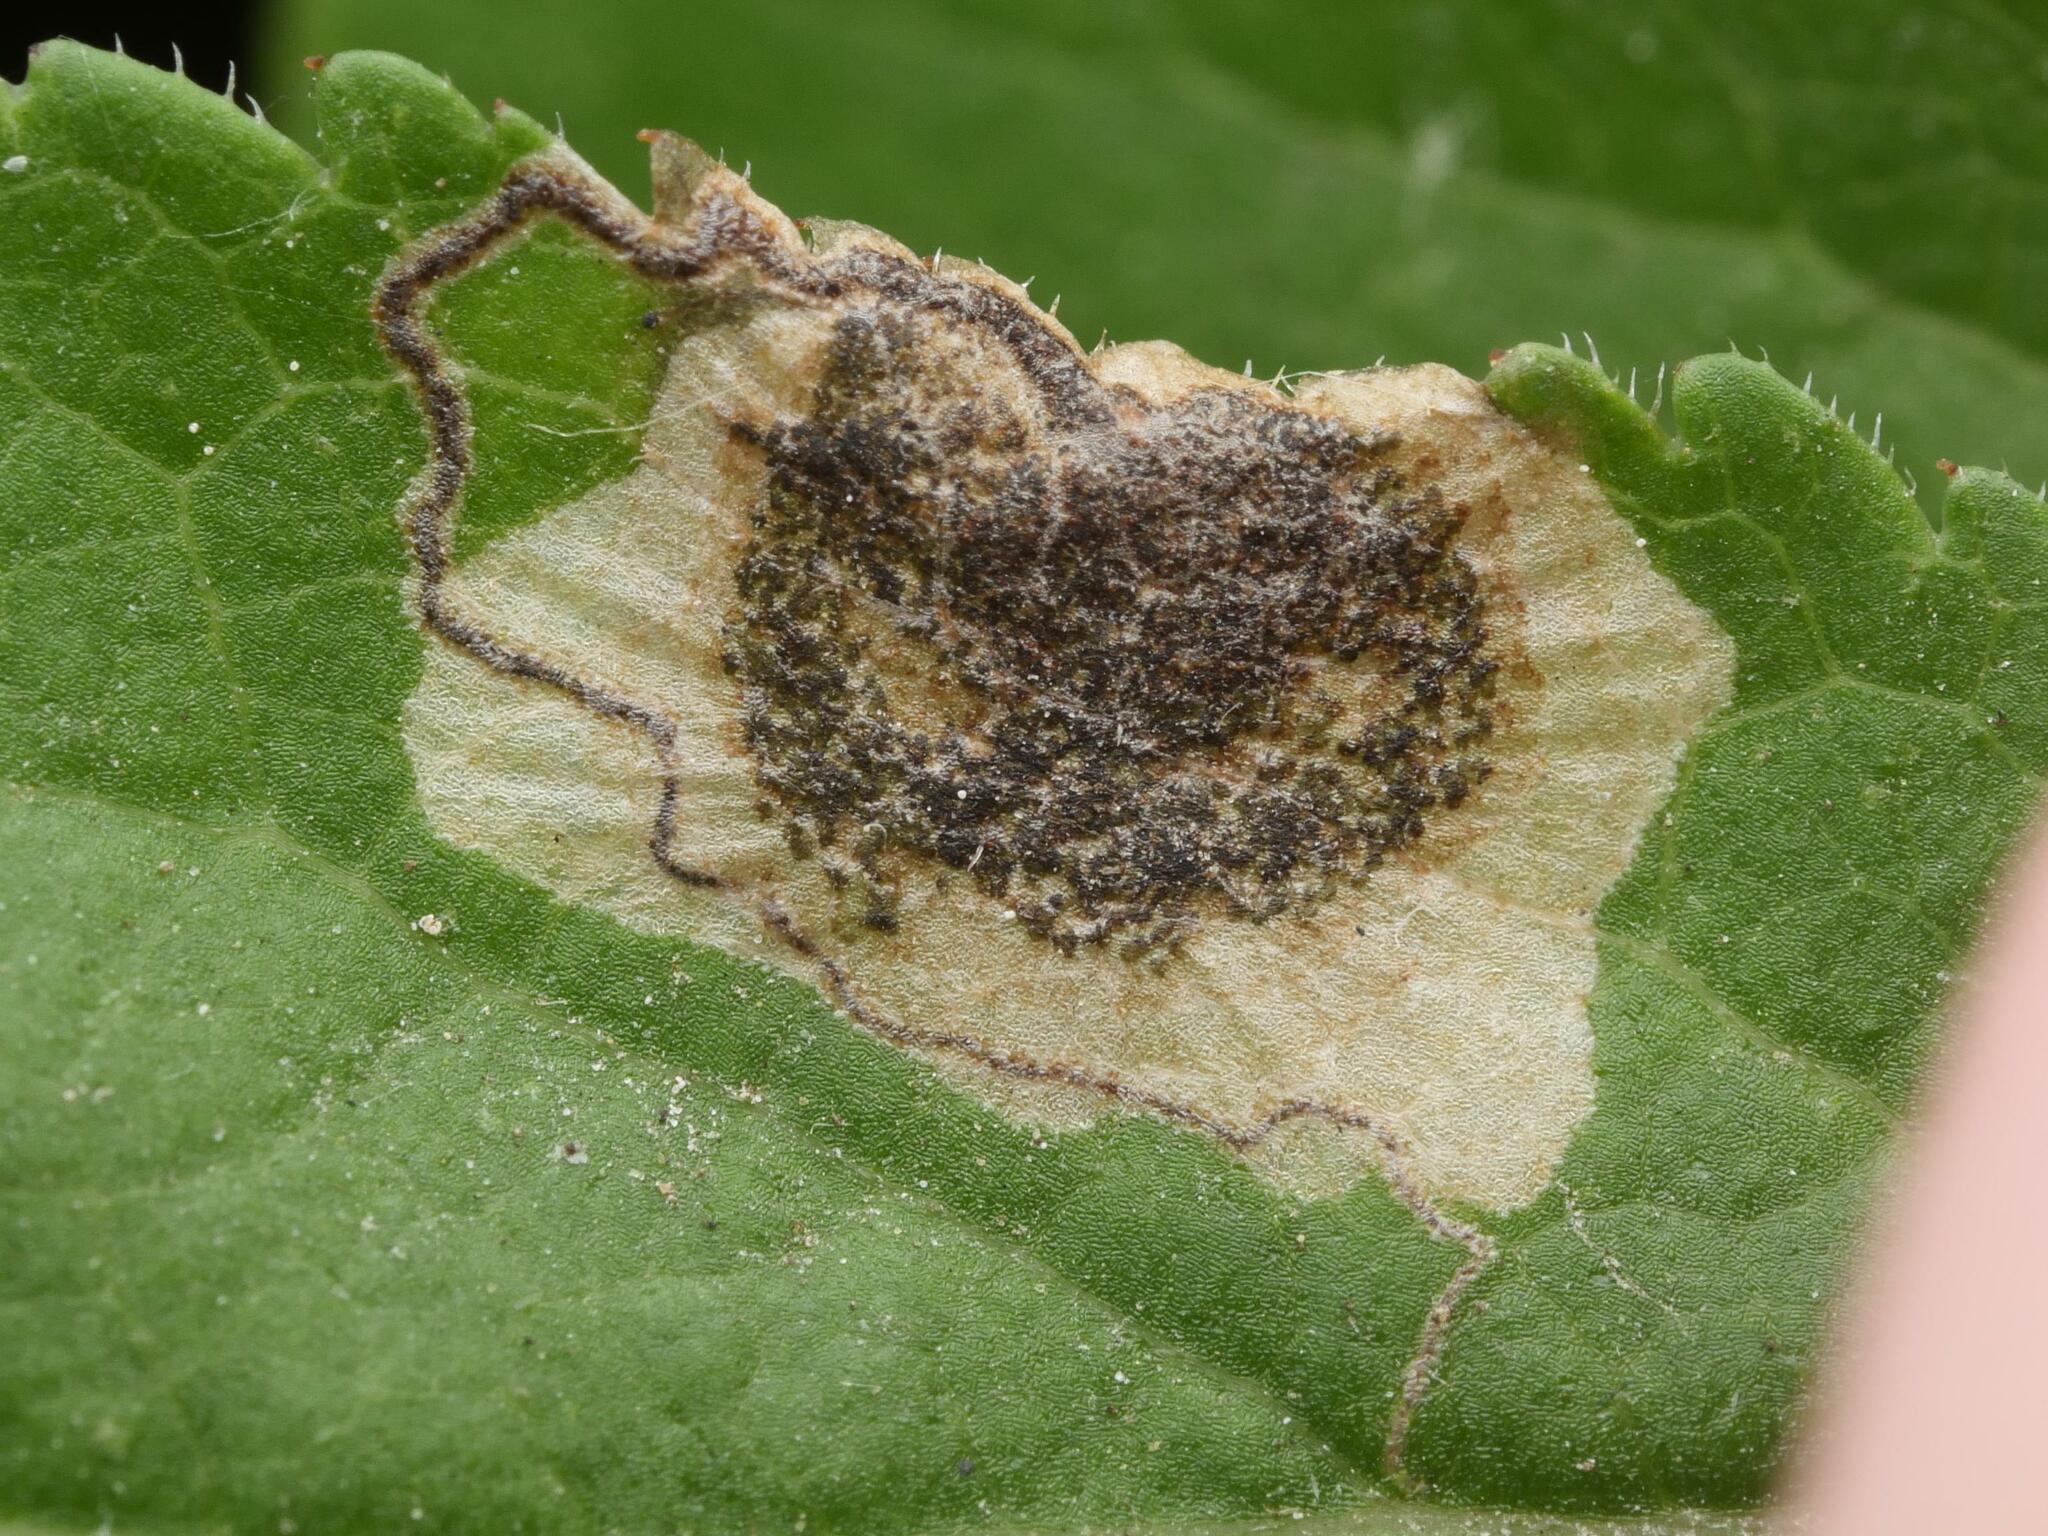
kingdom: Animalia
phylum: Arthropoda
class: Insecta
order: Lepidoptera
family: Nepticulidae
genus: Stigmella
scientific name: Stigmella plagicolella
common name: Scrubland pigmy
